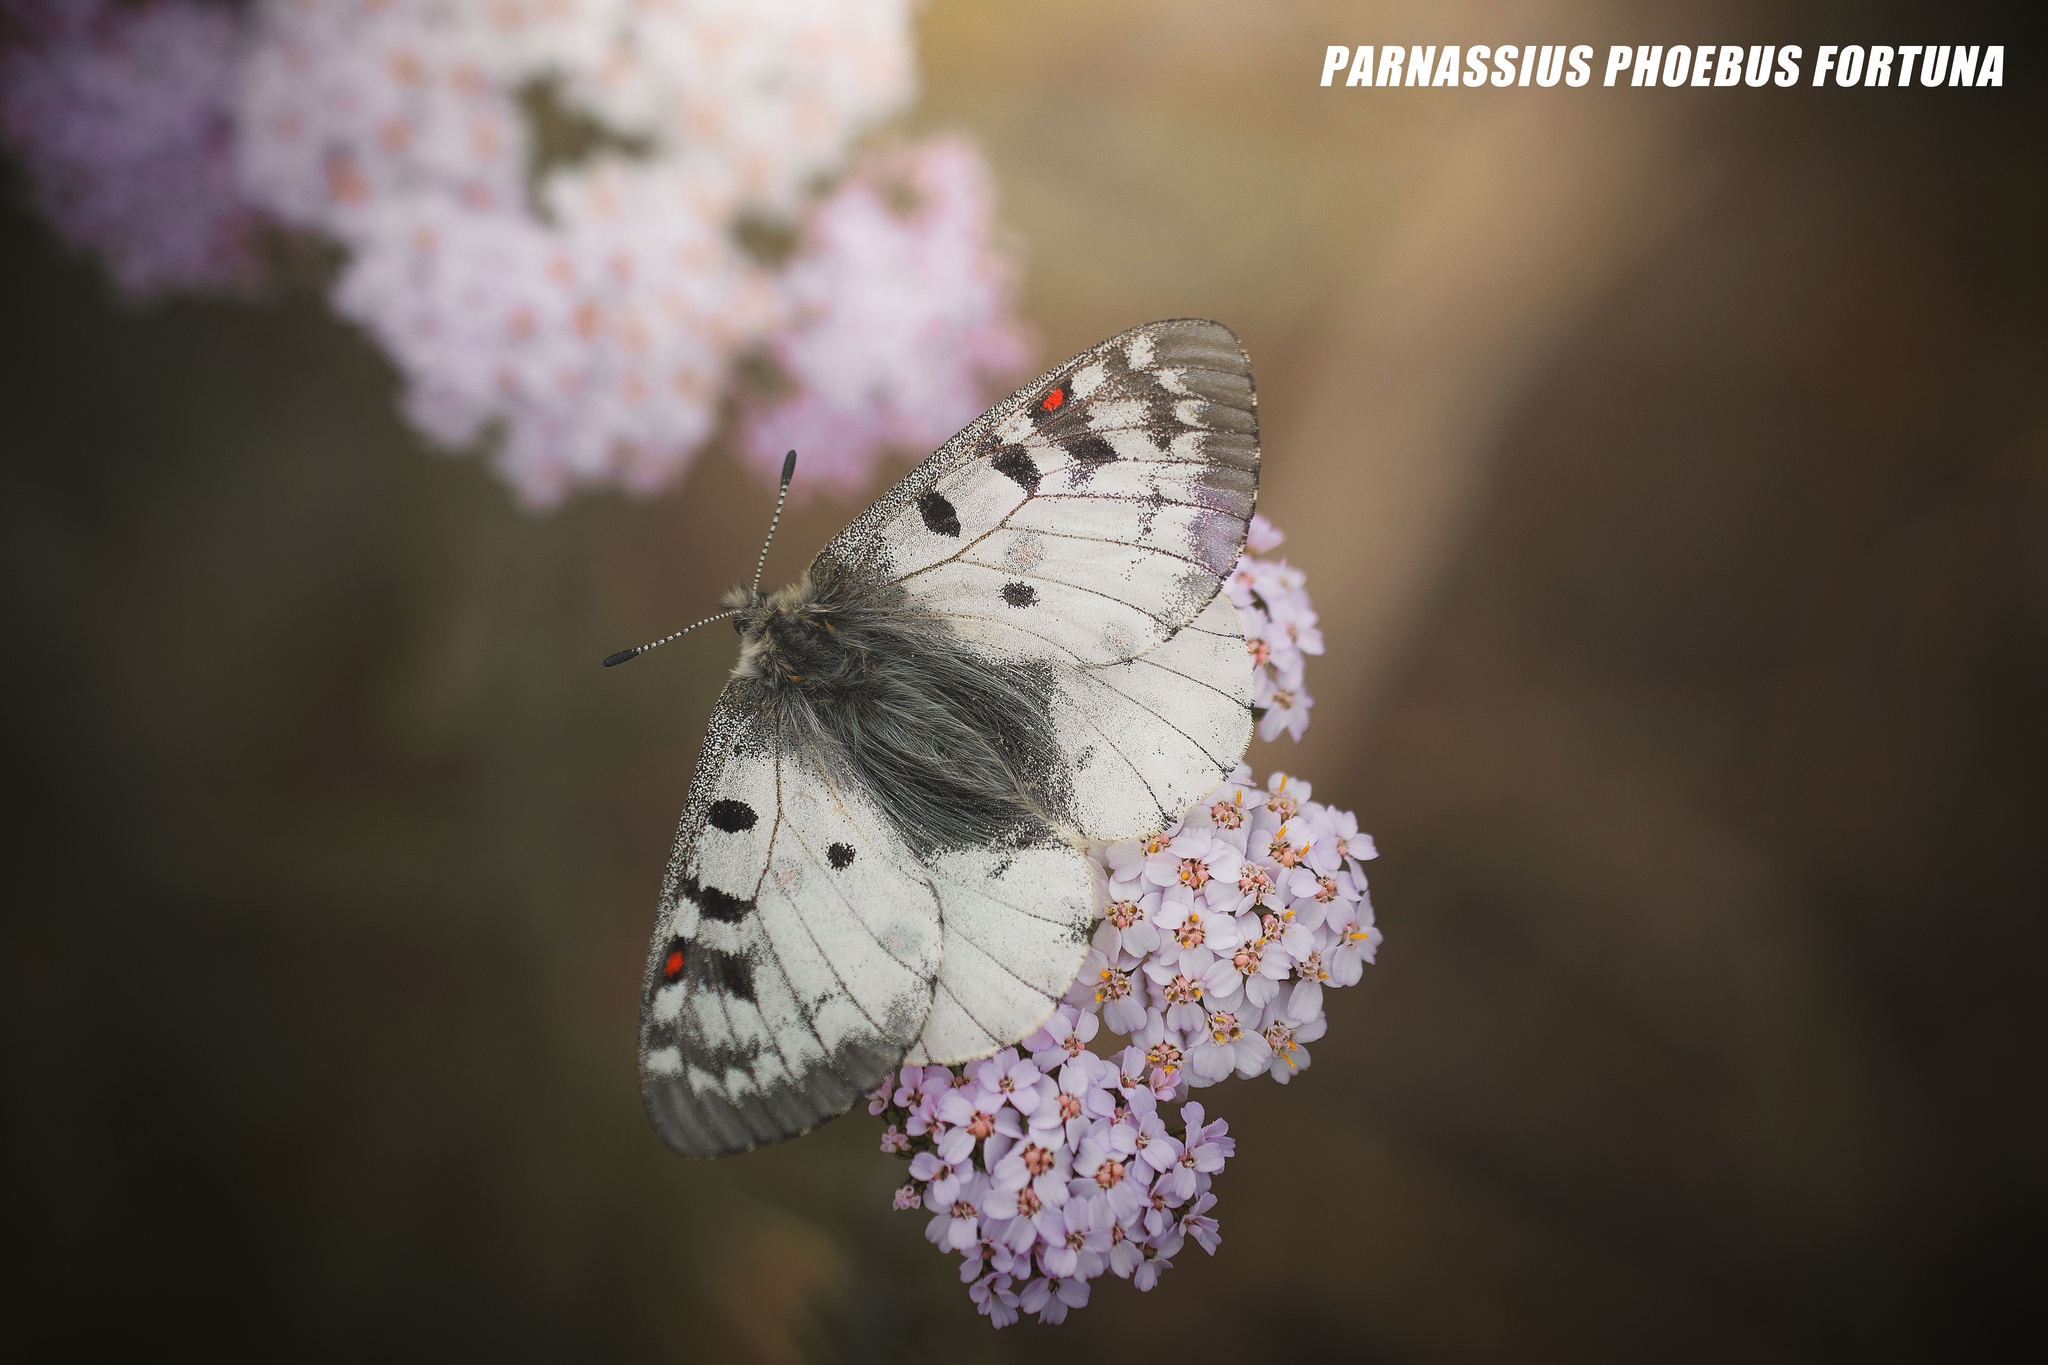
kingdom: Animalia
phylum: Arthropoda
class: Insecta
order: Lepidoptera
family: Papilionidae
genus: Parnassius
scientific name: Parnassius phoebus
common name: Small apollo
